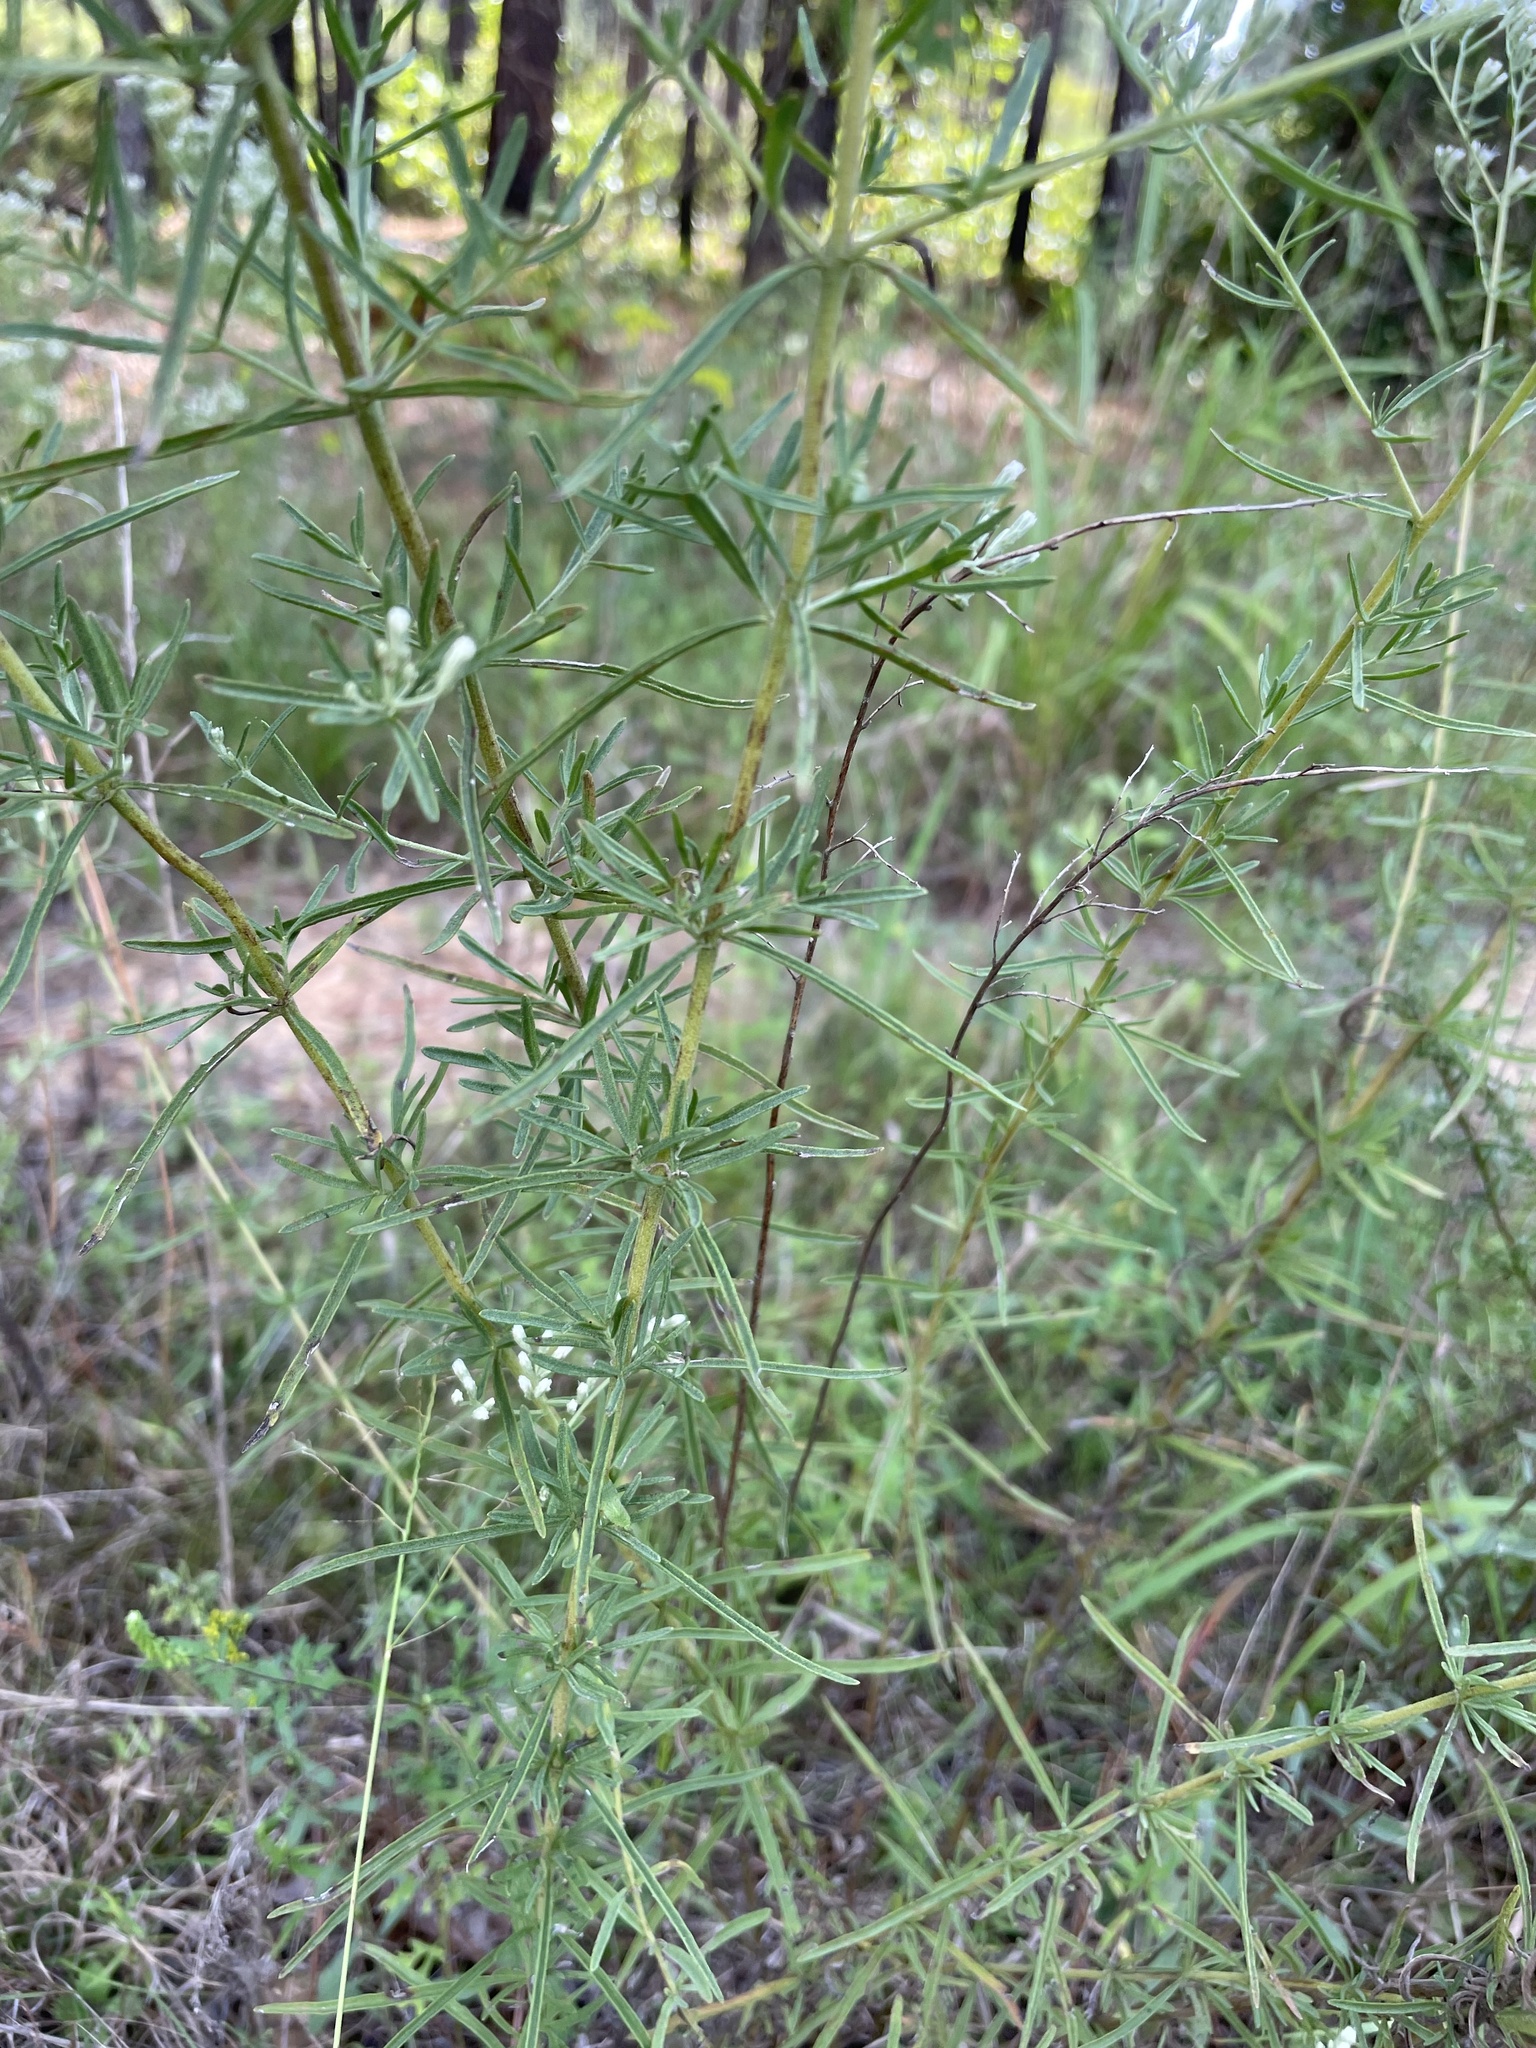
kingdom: Plantae
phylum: Tracheophyta
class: Magnoliopsida
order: Asterales
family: Asteraceae
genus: Eupatorium
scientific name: Eupatorium hyssopifolium
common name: Hyssop-leaf thoroughwort
